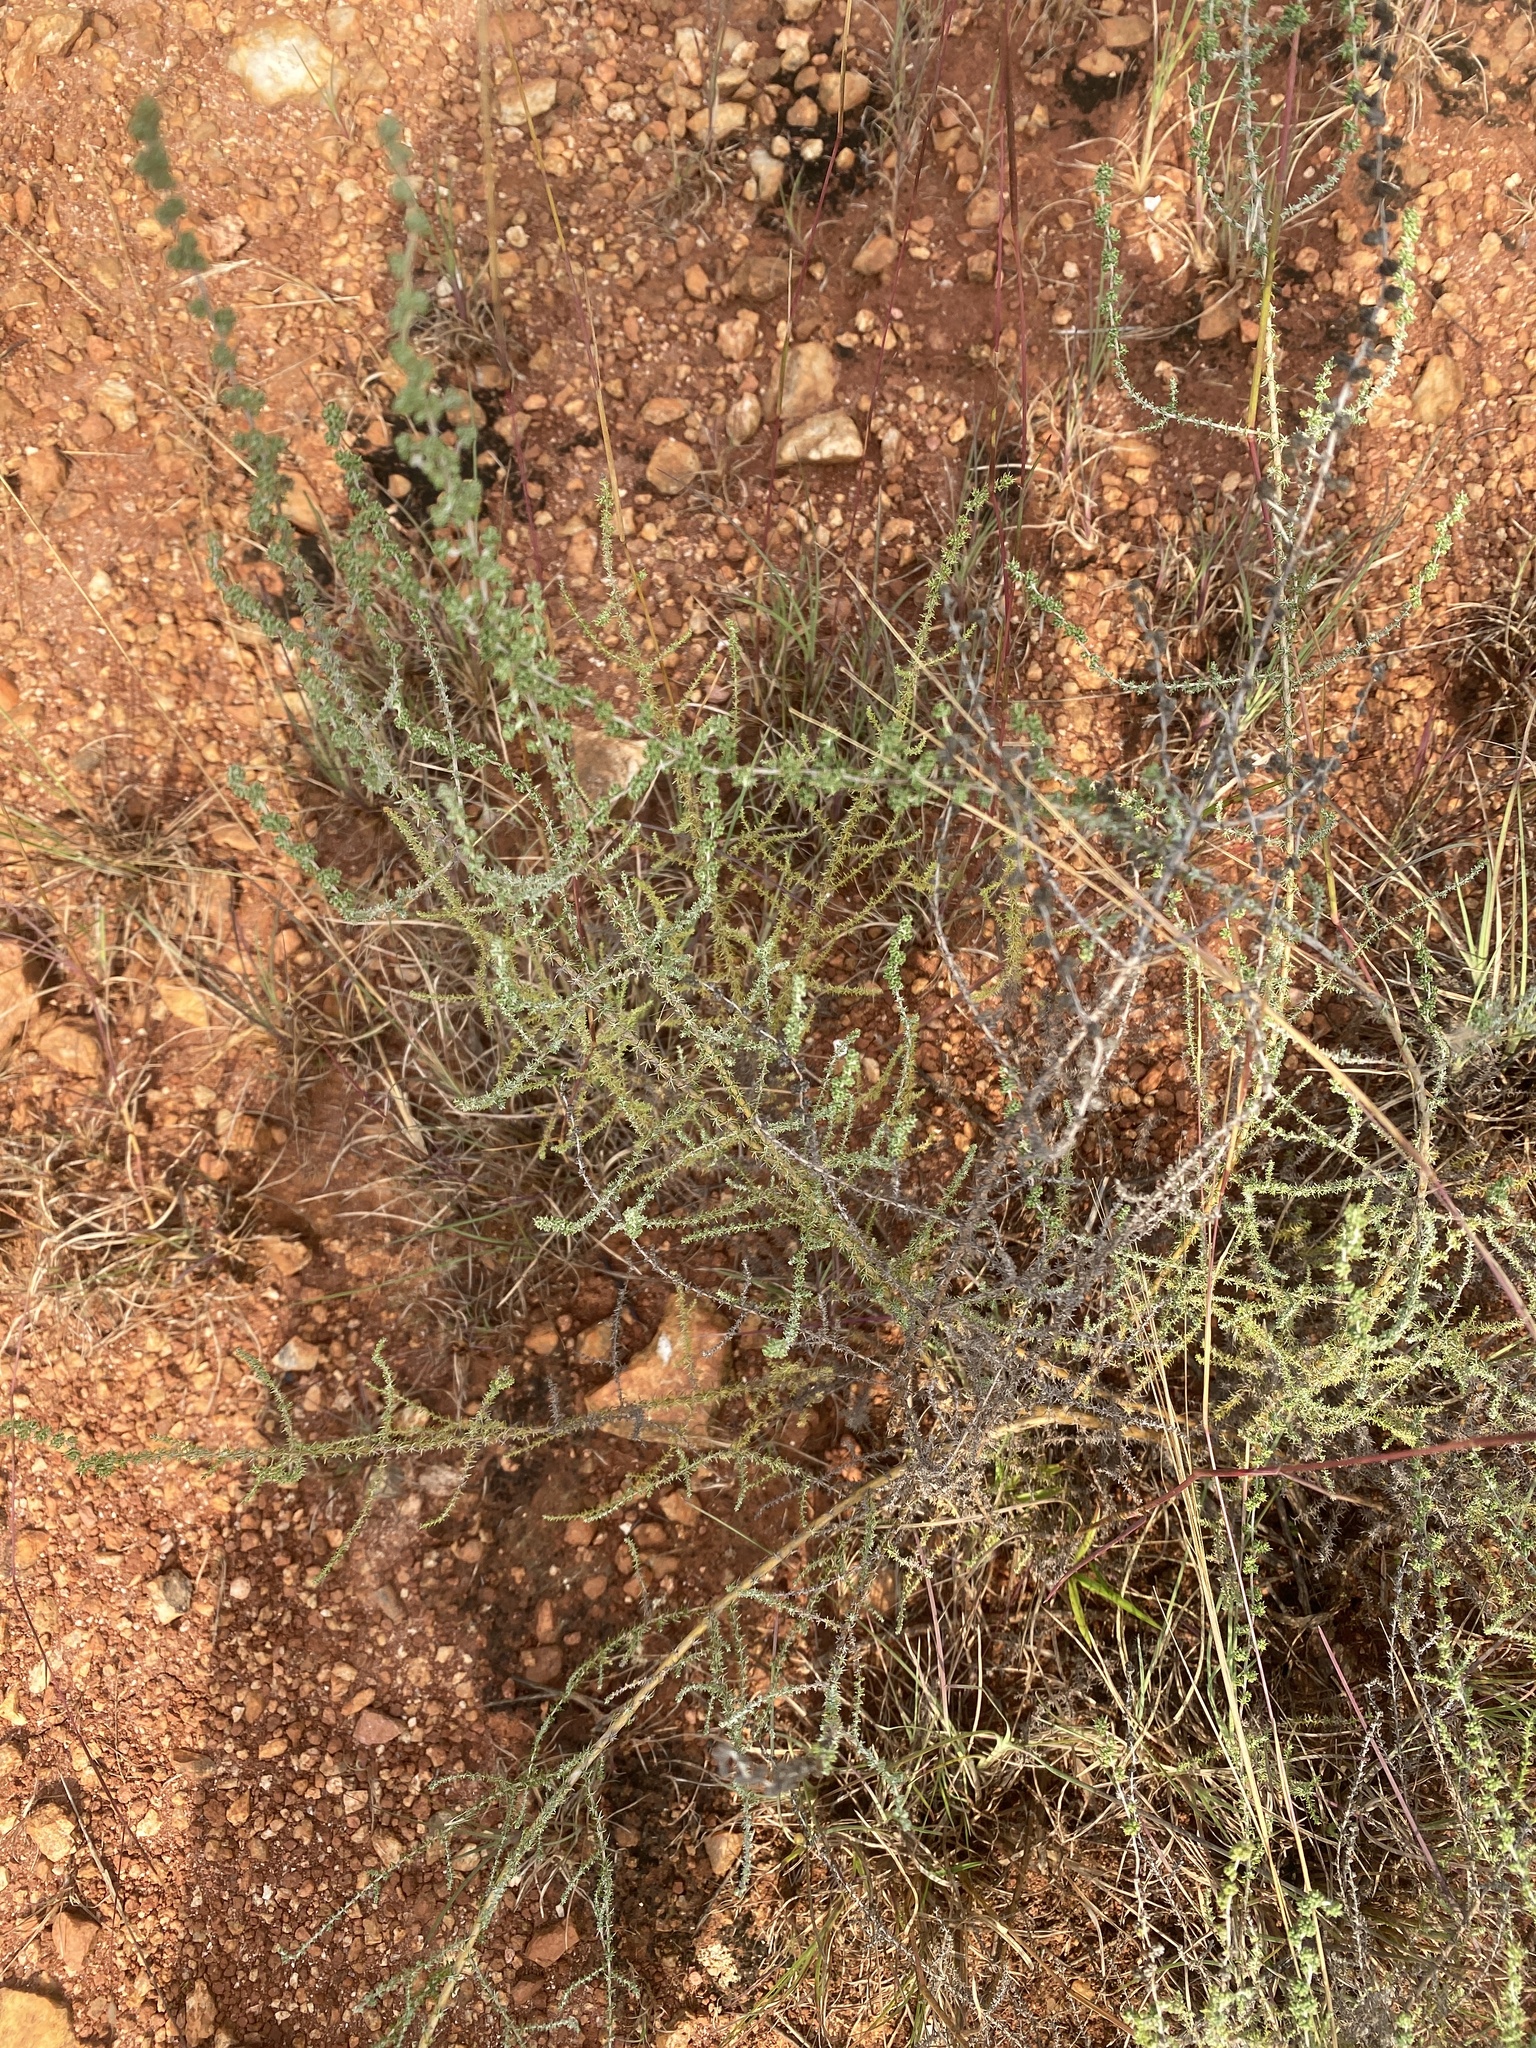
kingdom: Plantae
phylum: Tracheophyta
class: Magnoliopsida
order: Asterales
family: Asteraceae
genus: Seriphium
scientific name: Seriphium
